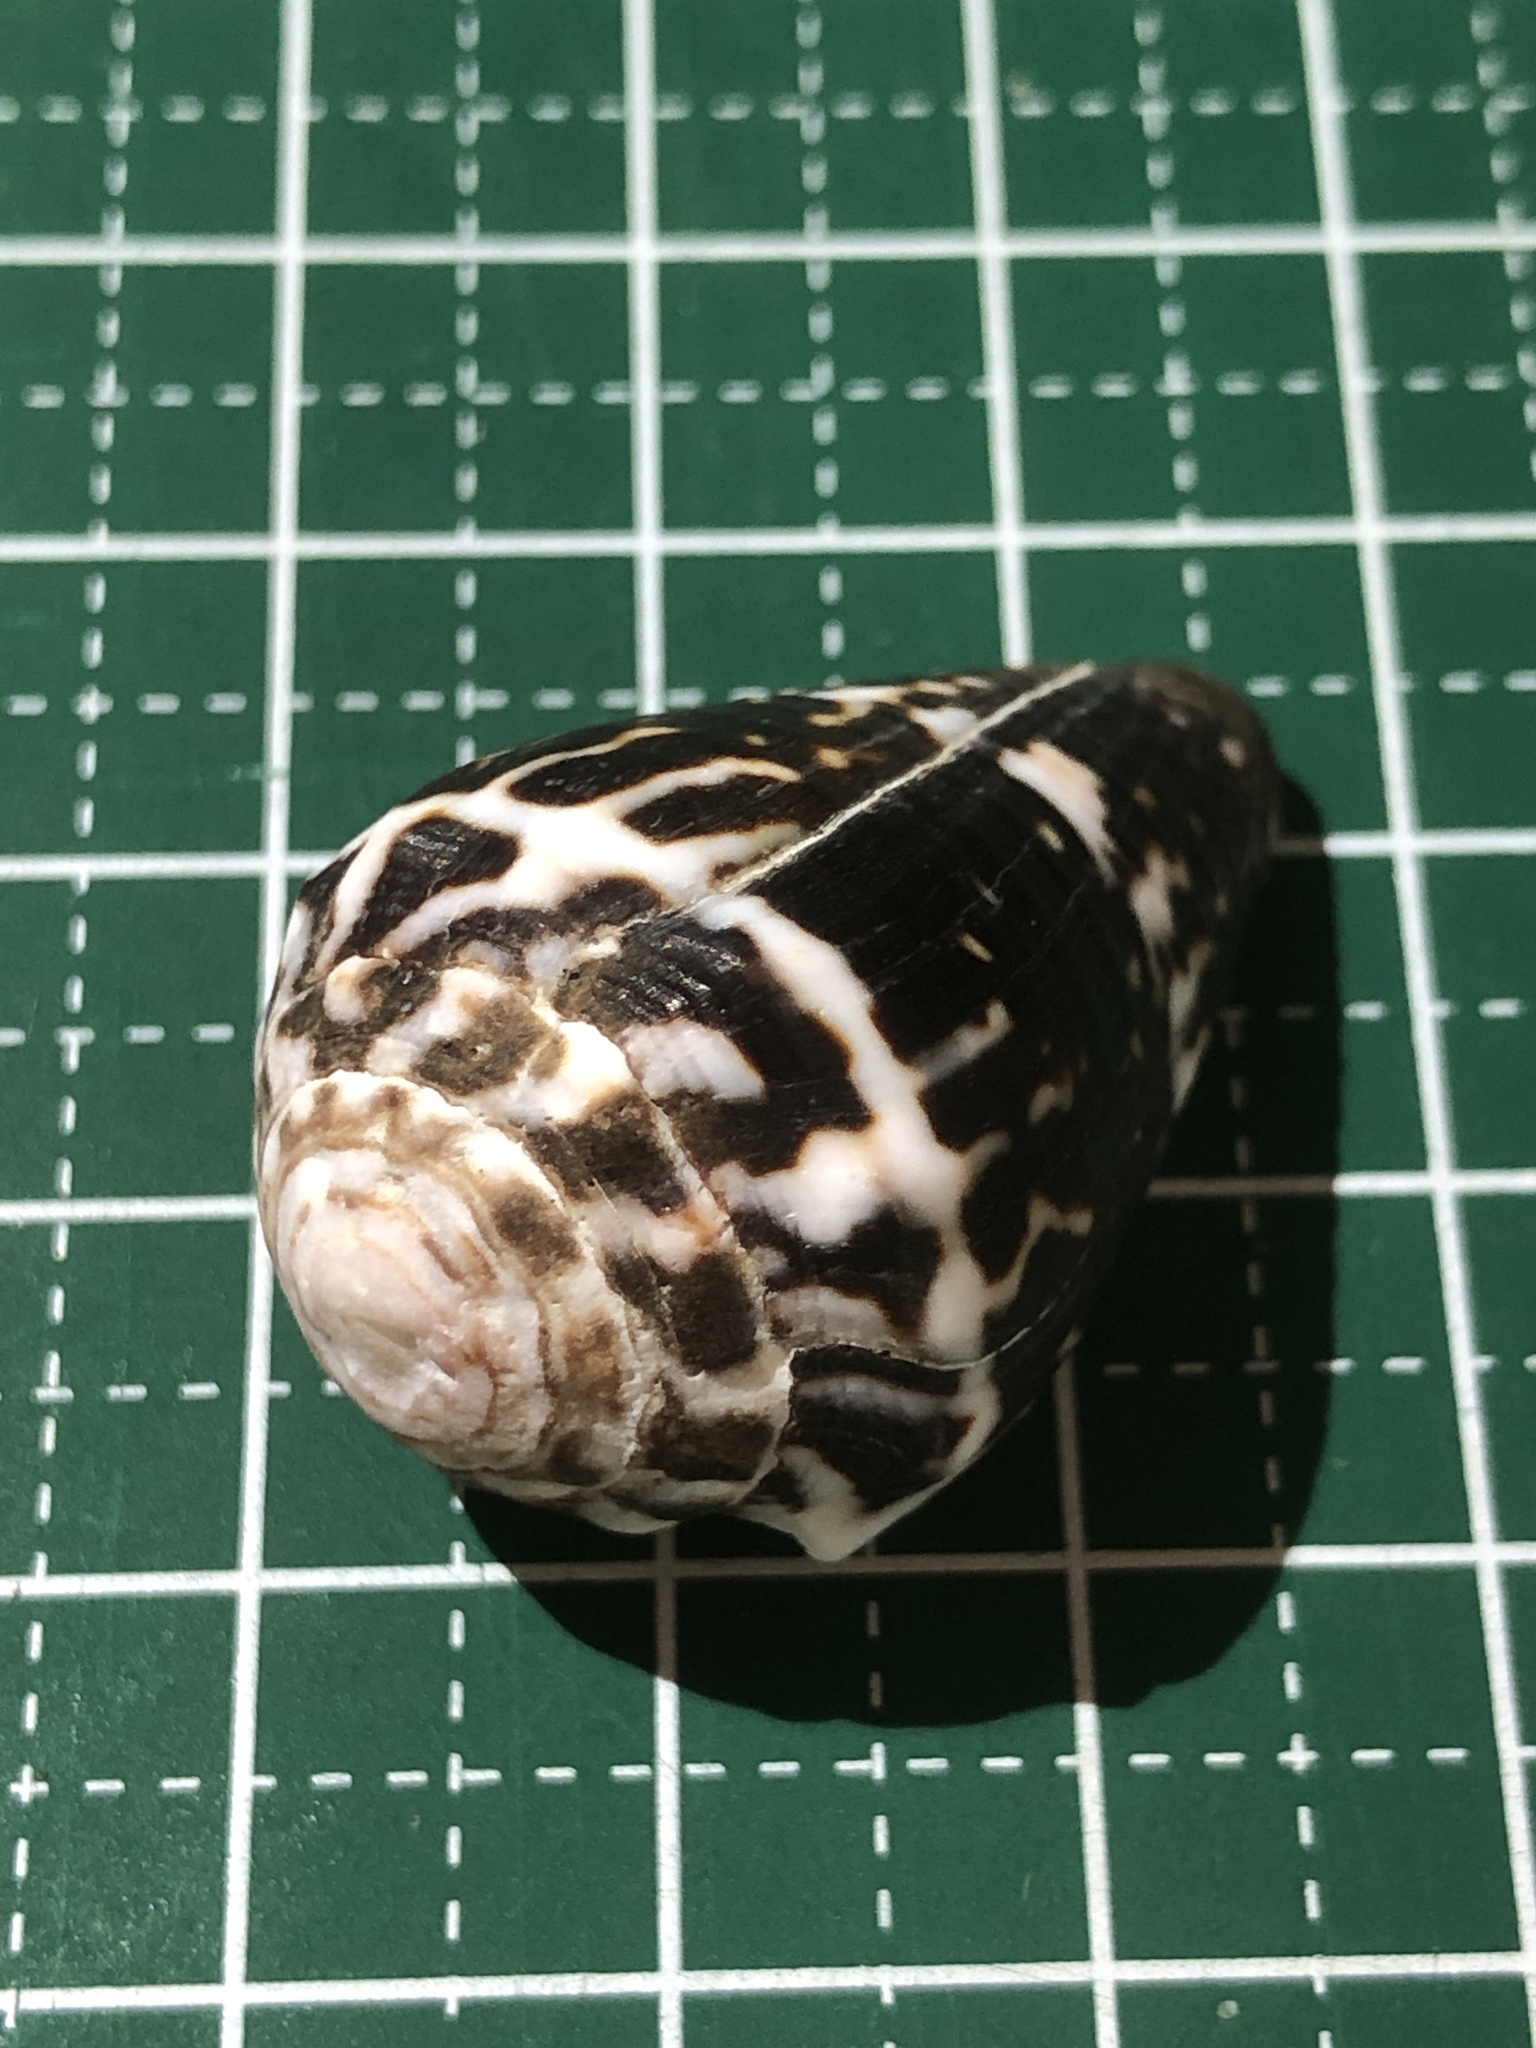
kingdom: Animalia
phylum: Mollusca
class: Gastropoda
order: Neogastropoda
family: Conidae
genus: Conus
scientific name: Conus chaldaeus
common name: Astrologer's cone
